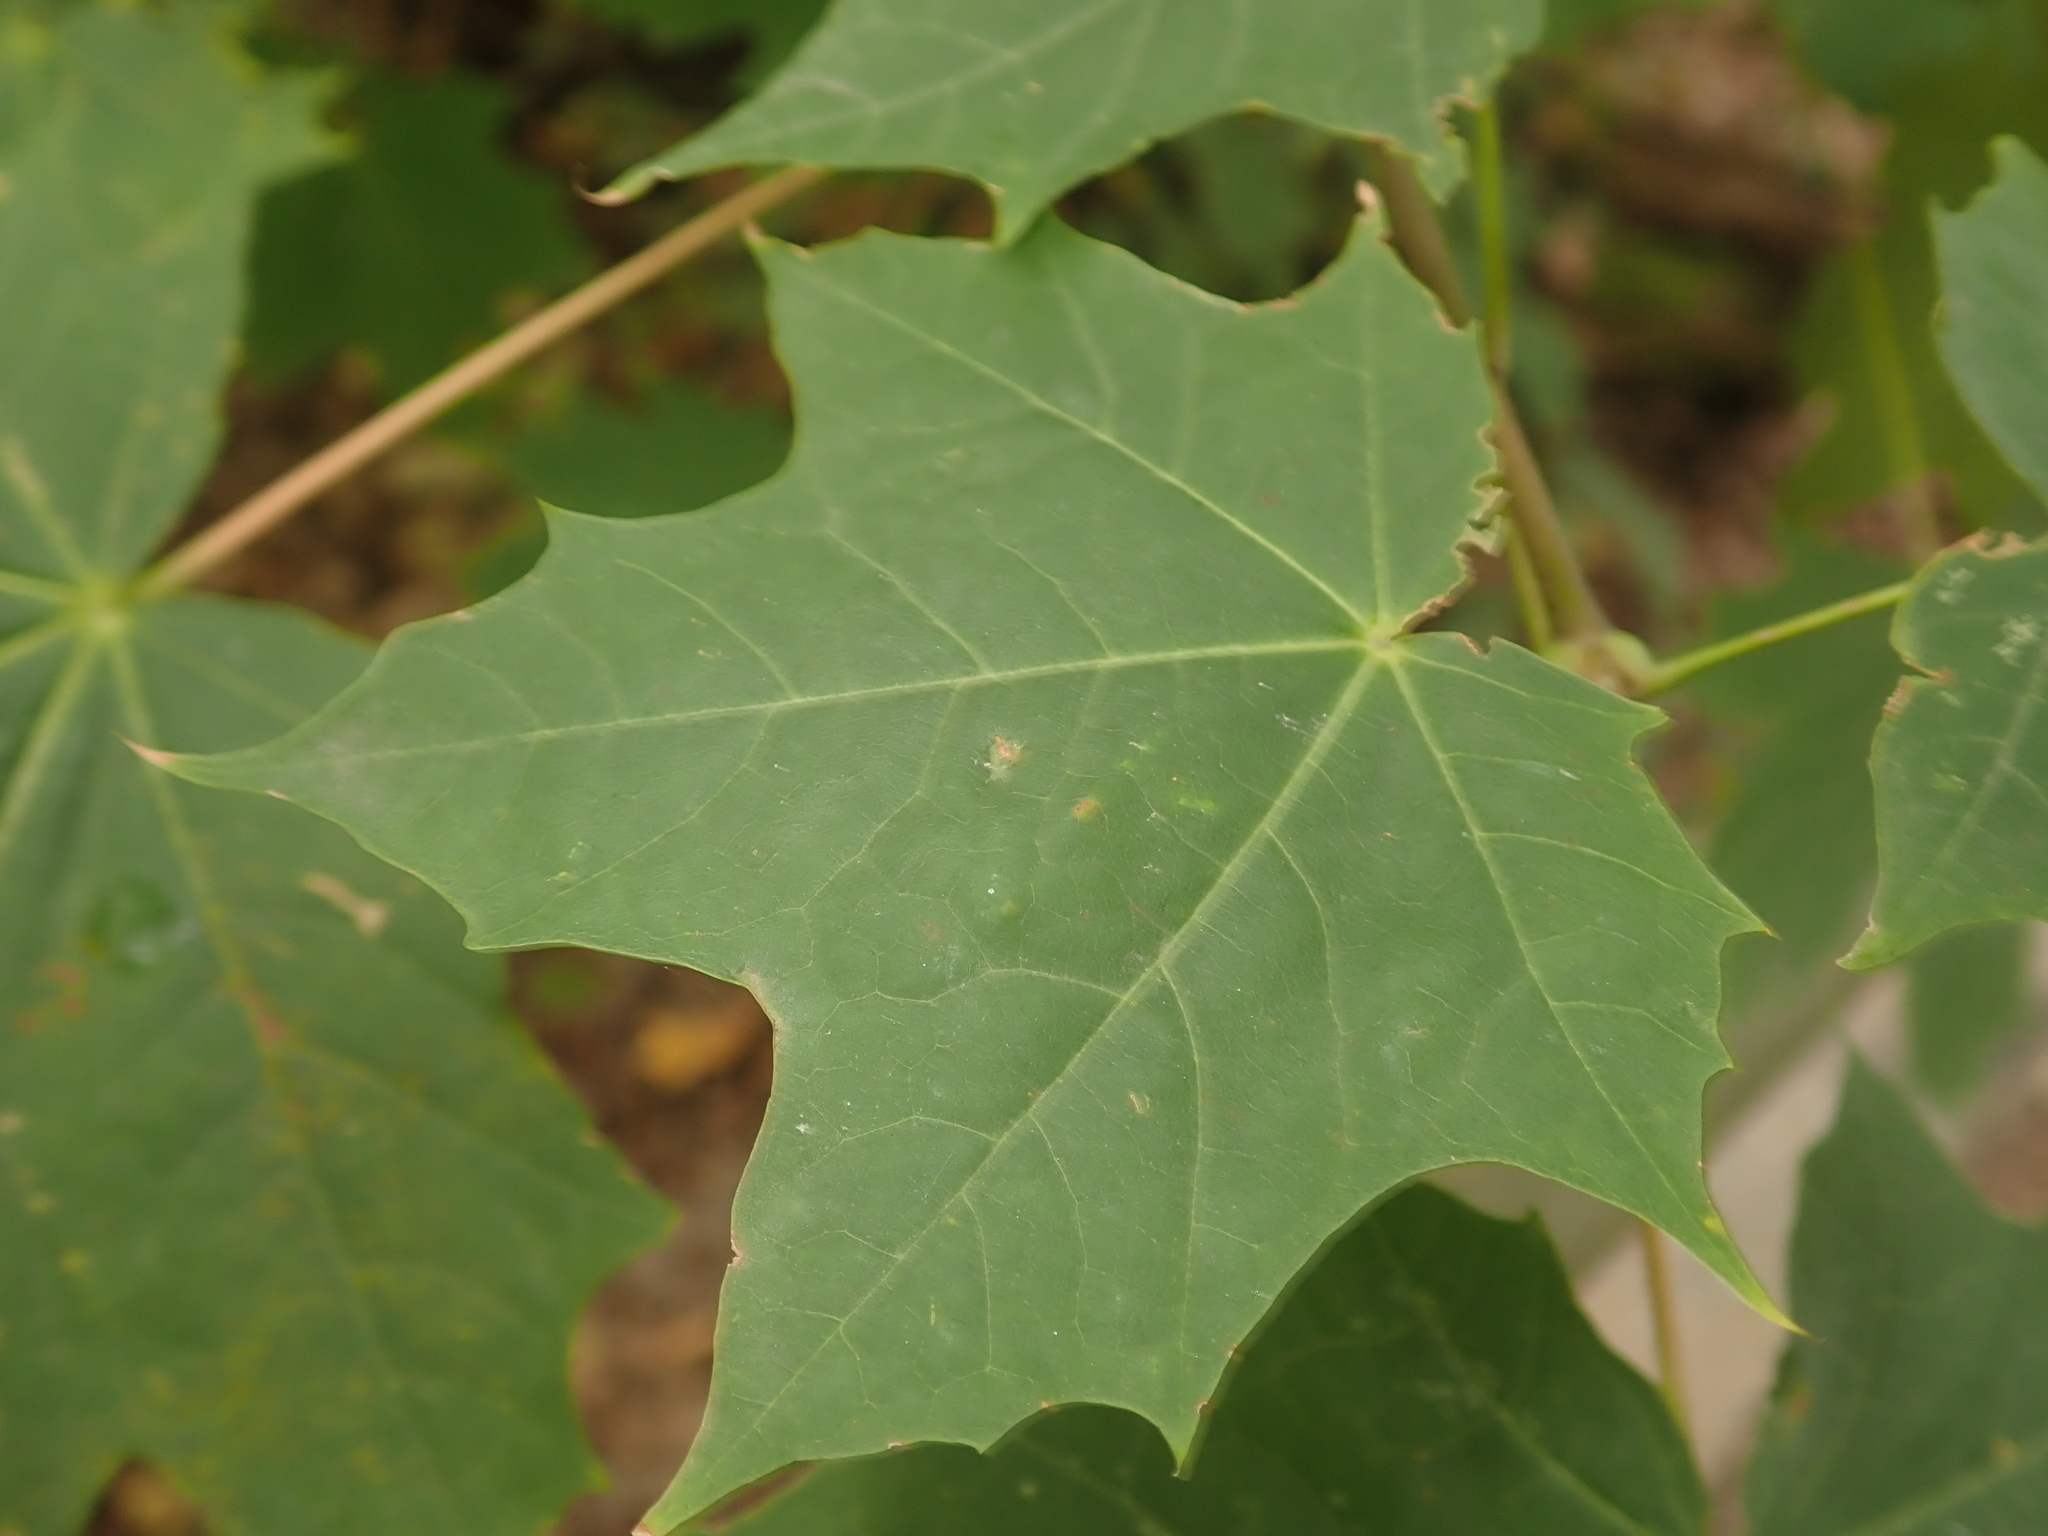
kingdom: Plantae
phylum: Tracheophyta
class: Magnoliopsida
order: Sapindales
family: Sapindaceae
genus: Acer
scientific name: Acer platanoides
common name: Norway maple
